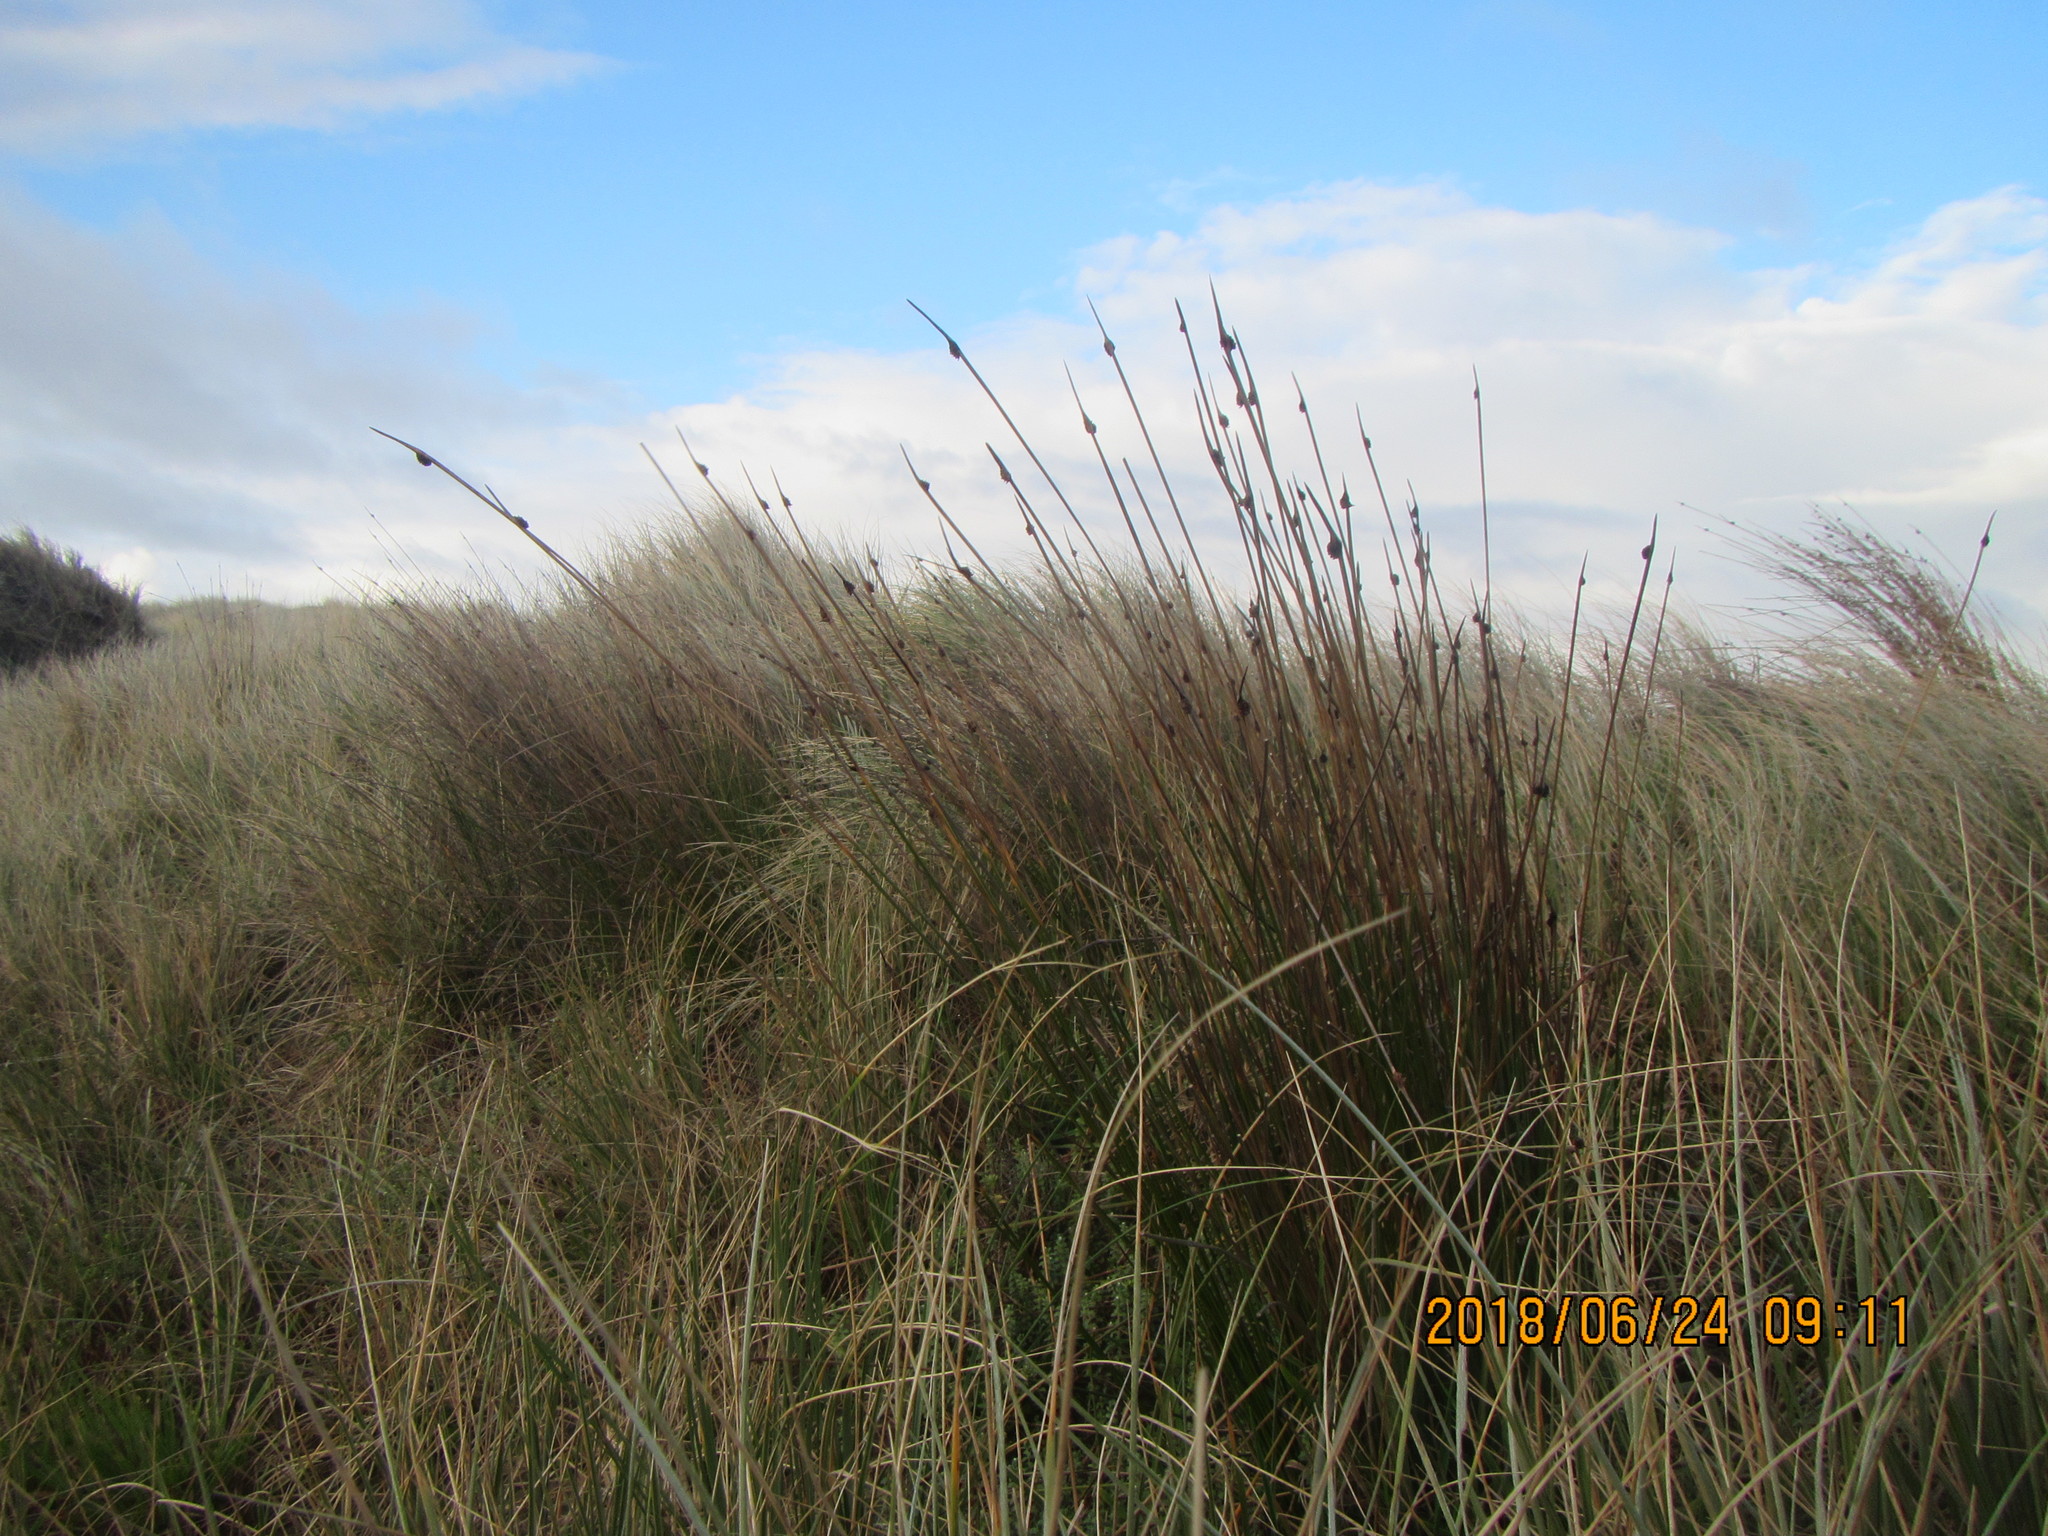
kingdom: Plantae
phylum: Tracheophyta
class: Liliopsida
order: Poales
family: Cyperaceae
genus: Ficinia
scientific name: Ficinia nodosa
